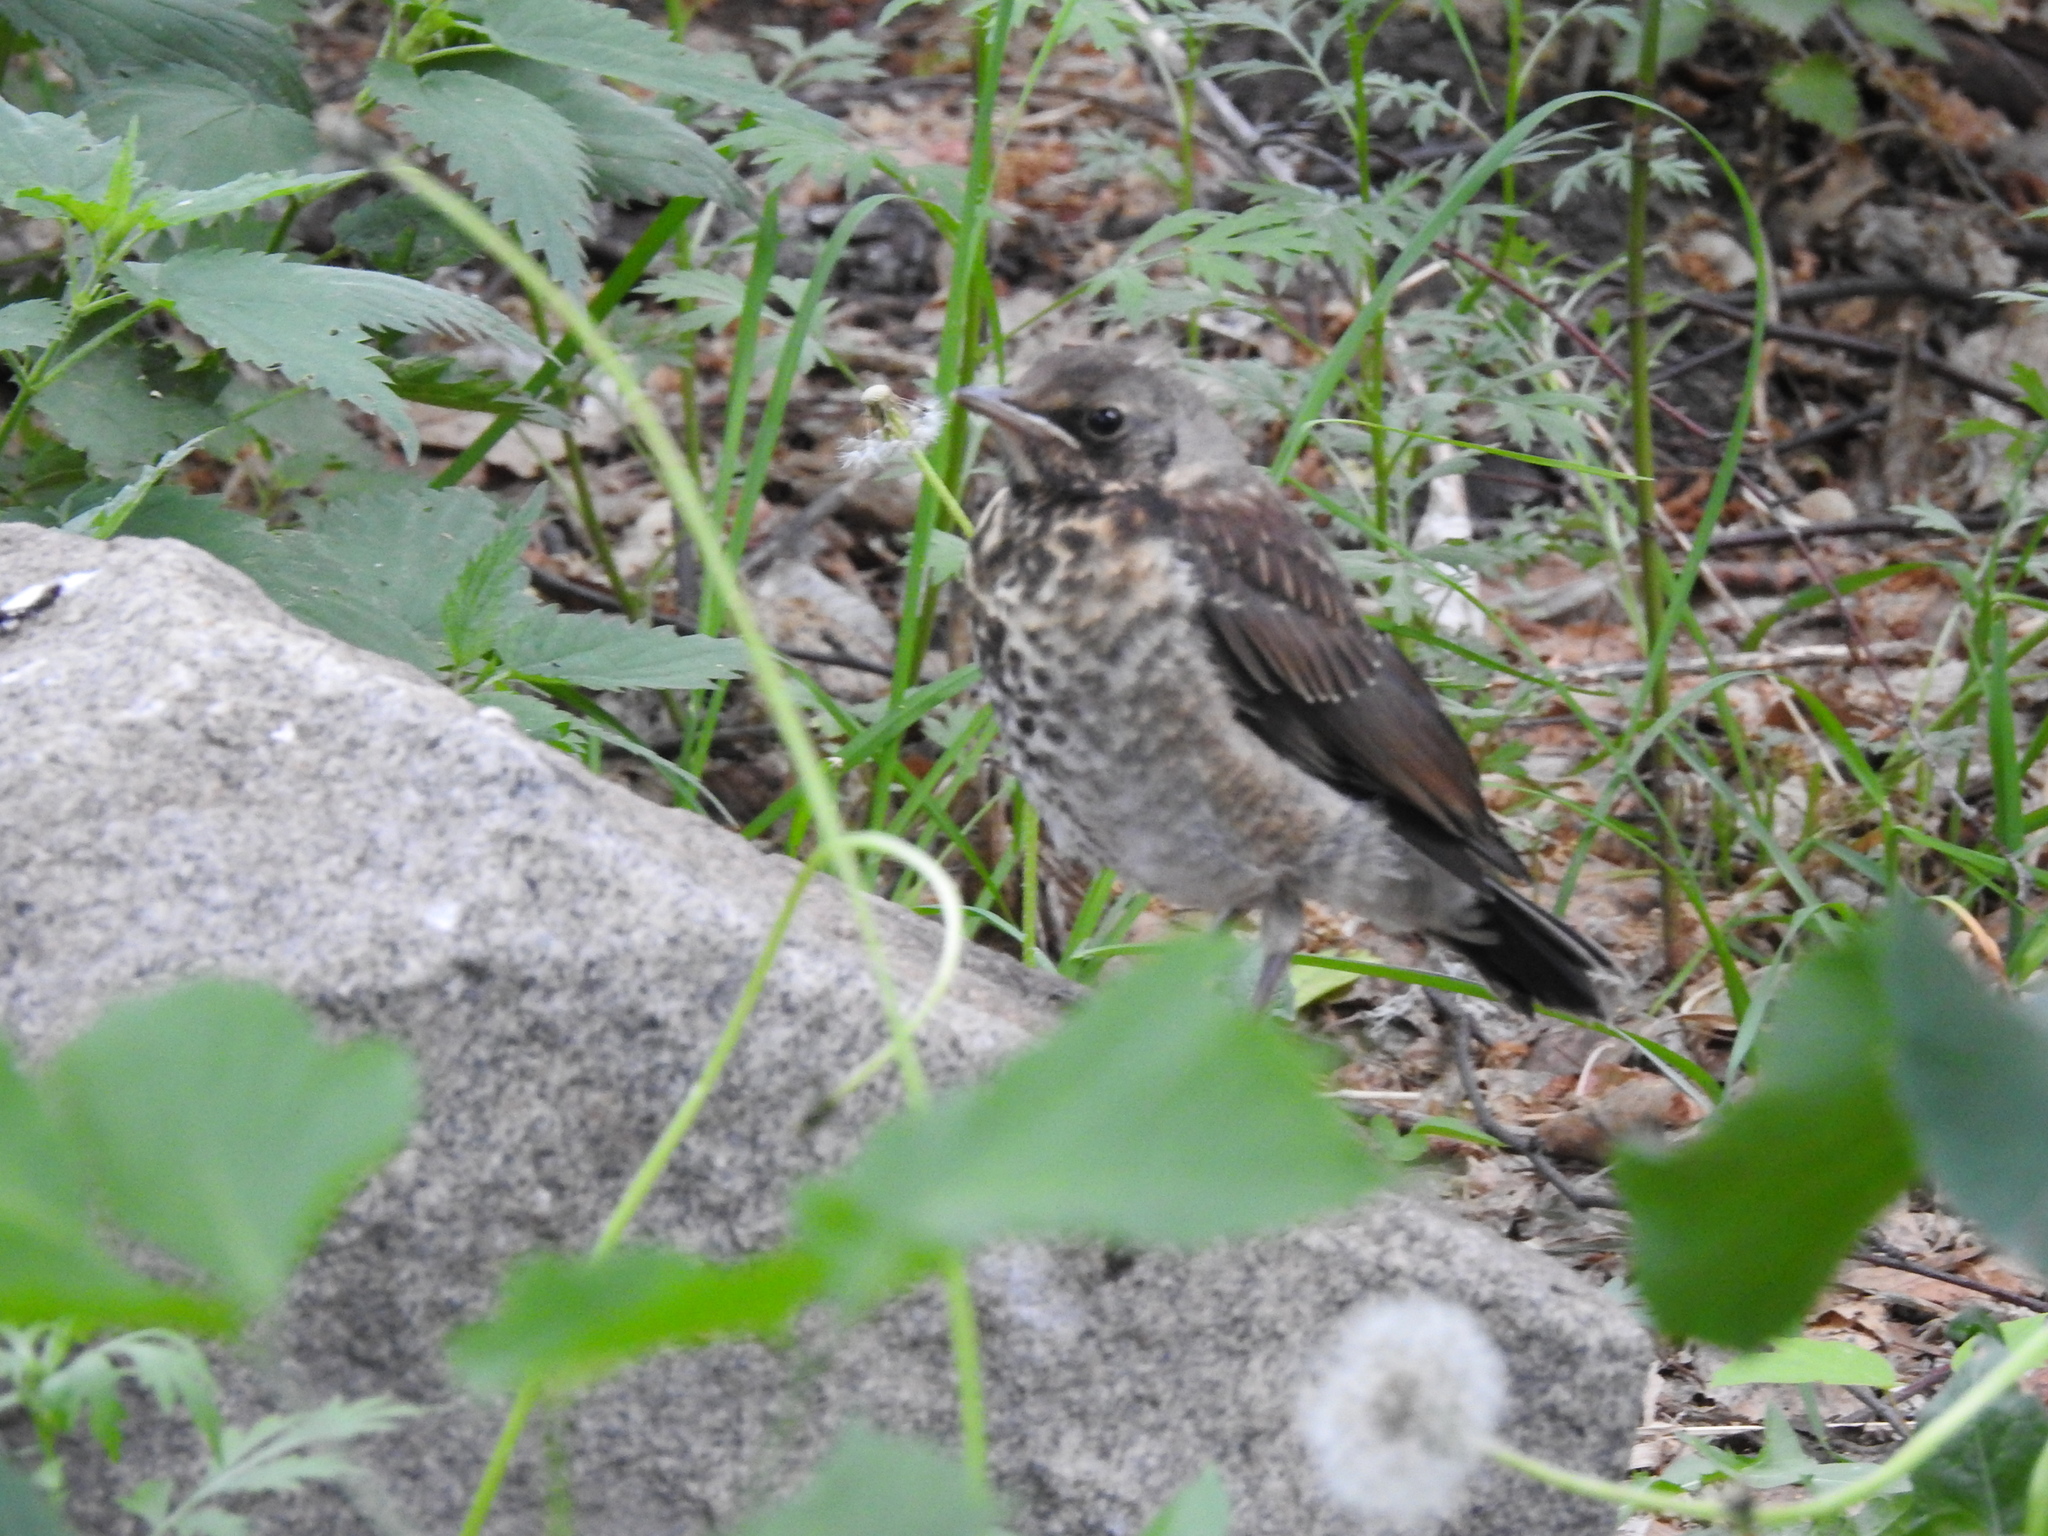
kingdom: Animalia
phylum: Chordata
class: Aves
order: Passeriformes
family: Turdidae
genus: Turdus
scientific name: Turdus pilaris
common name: Fieldfare
